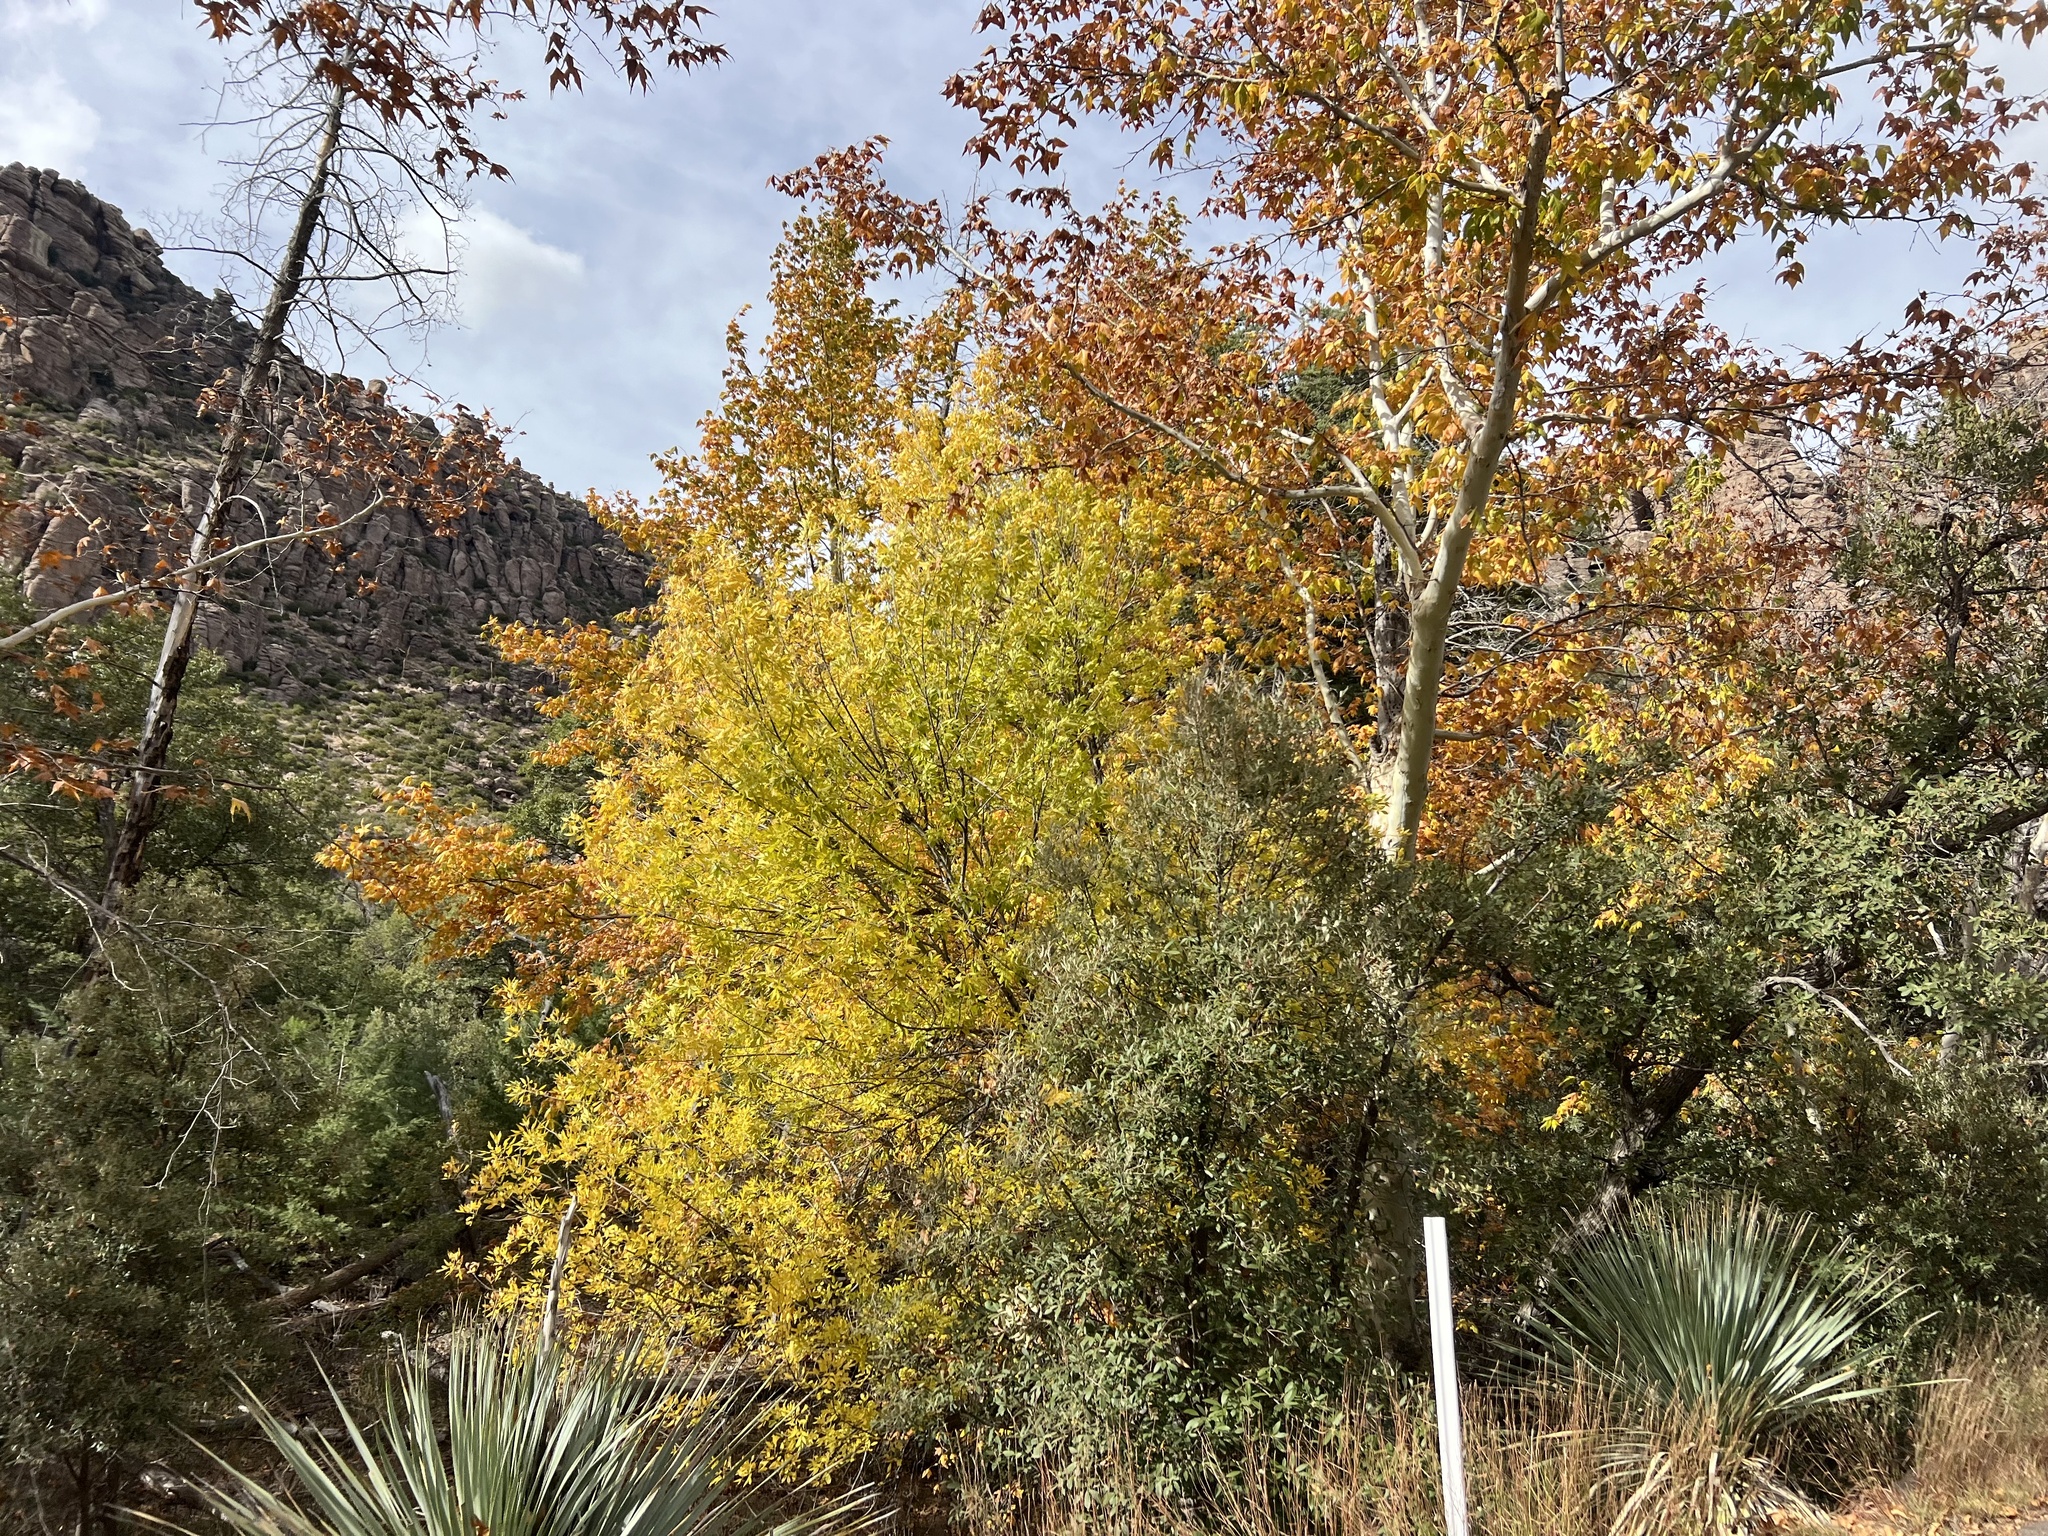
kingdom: Plantae
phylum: Tracheophyta
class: Magnoliopsida
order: Lamiales
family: Oleaceae
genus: Fraxinus
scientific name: Fraxinus velutina
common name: Arizon ash
